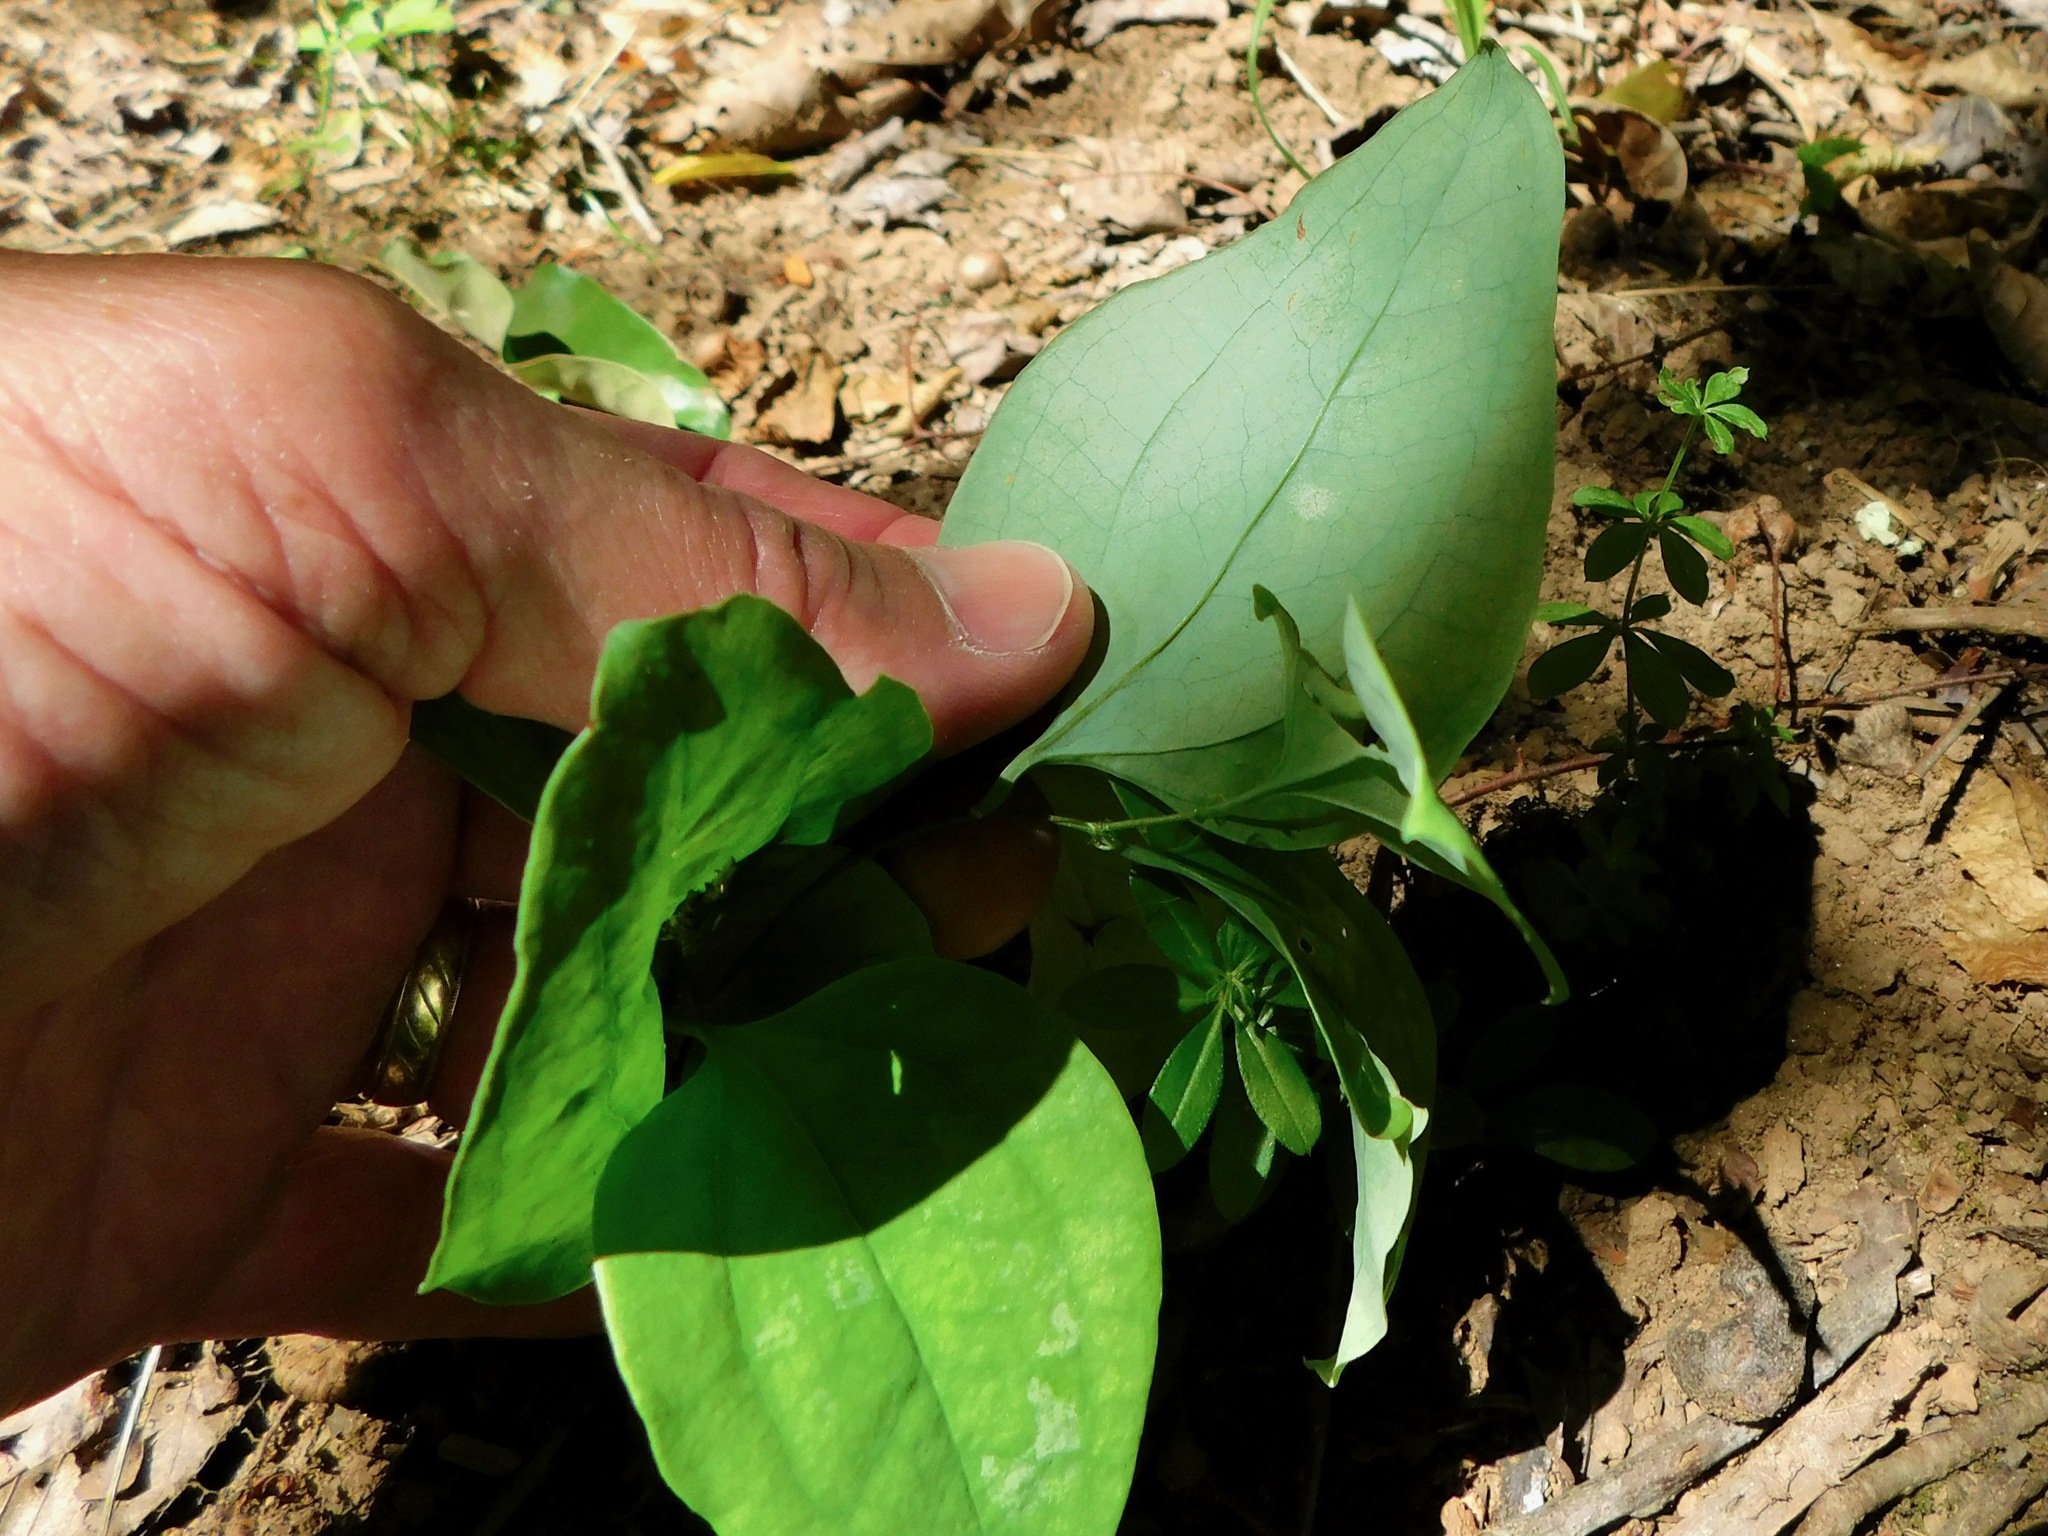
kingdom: Plantae
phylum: Tracheophyta
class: Liliopsida
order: Liliales
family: Smilacaceae
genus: Smilax
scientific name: Smilax glauca
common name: Cat greenbrier
